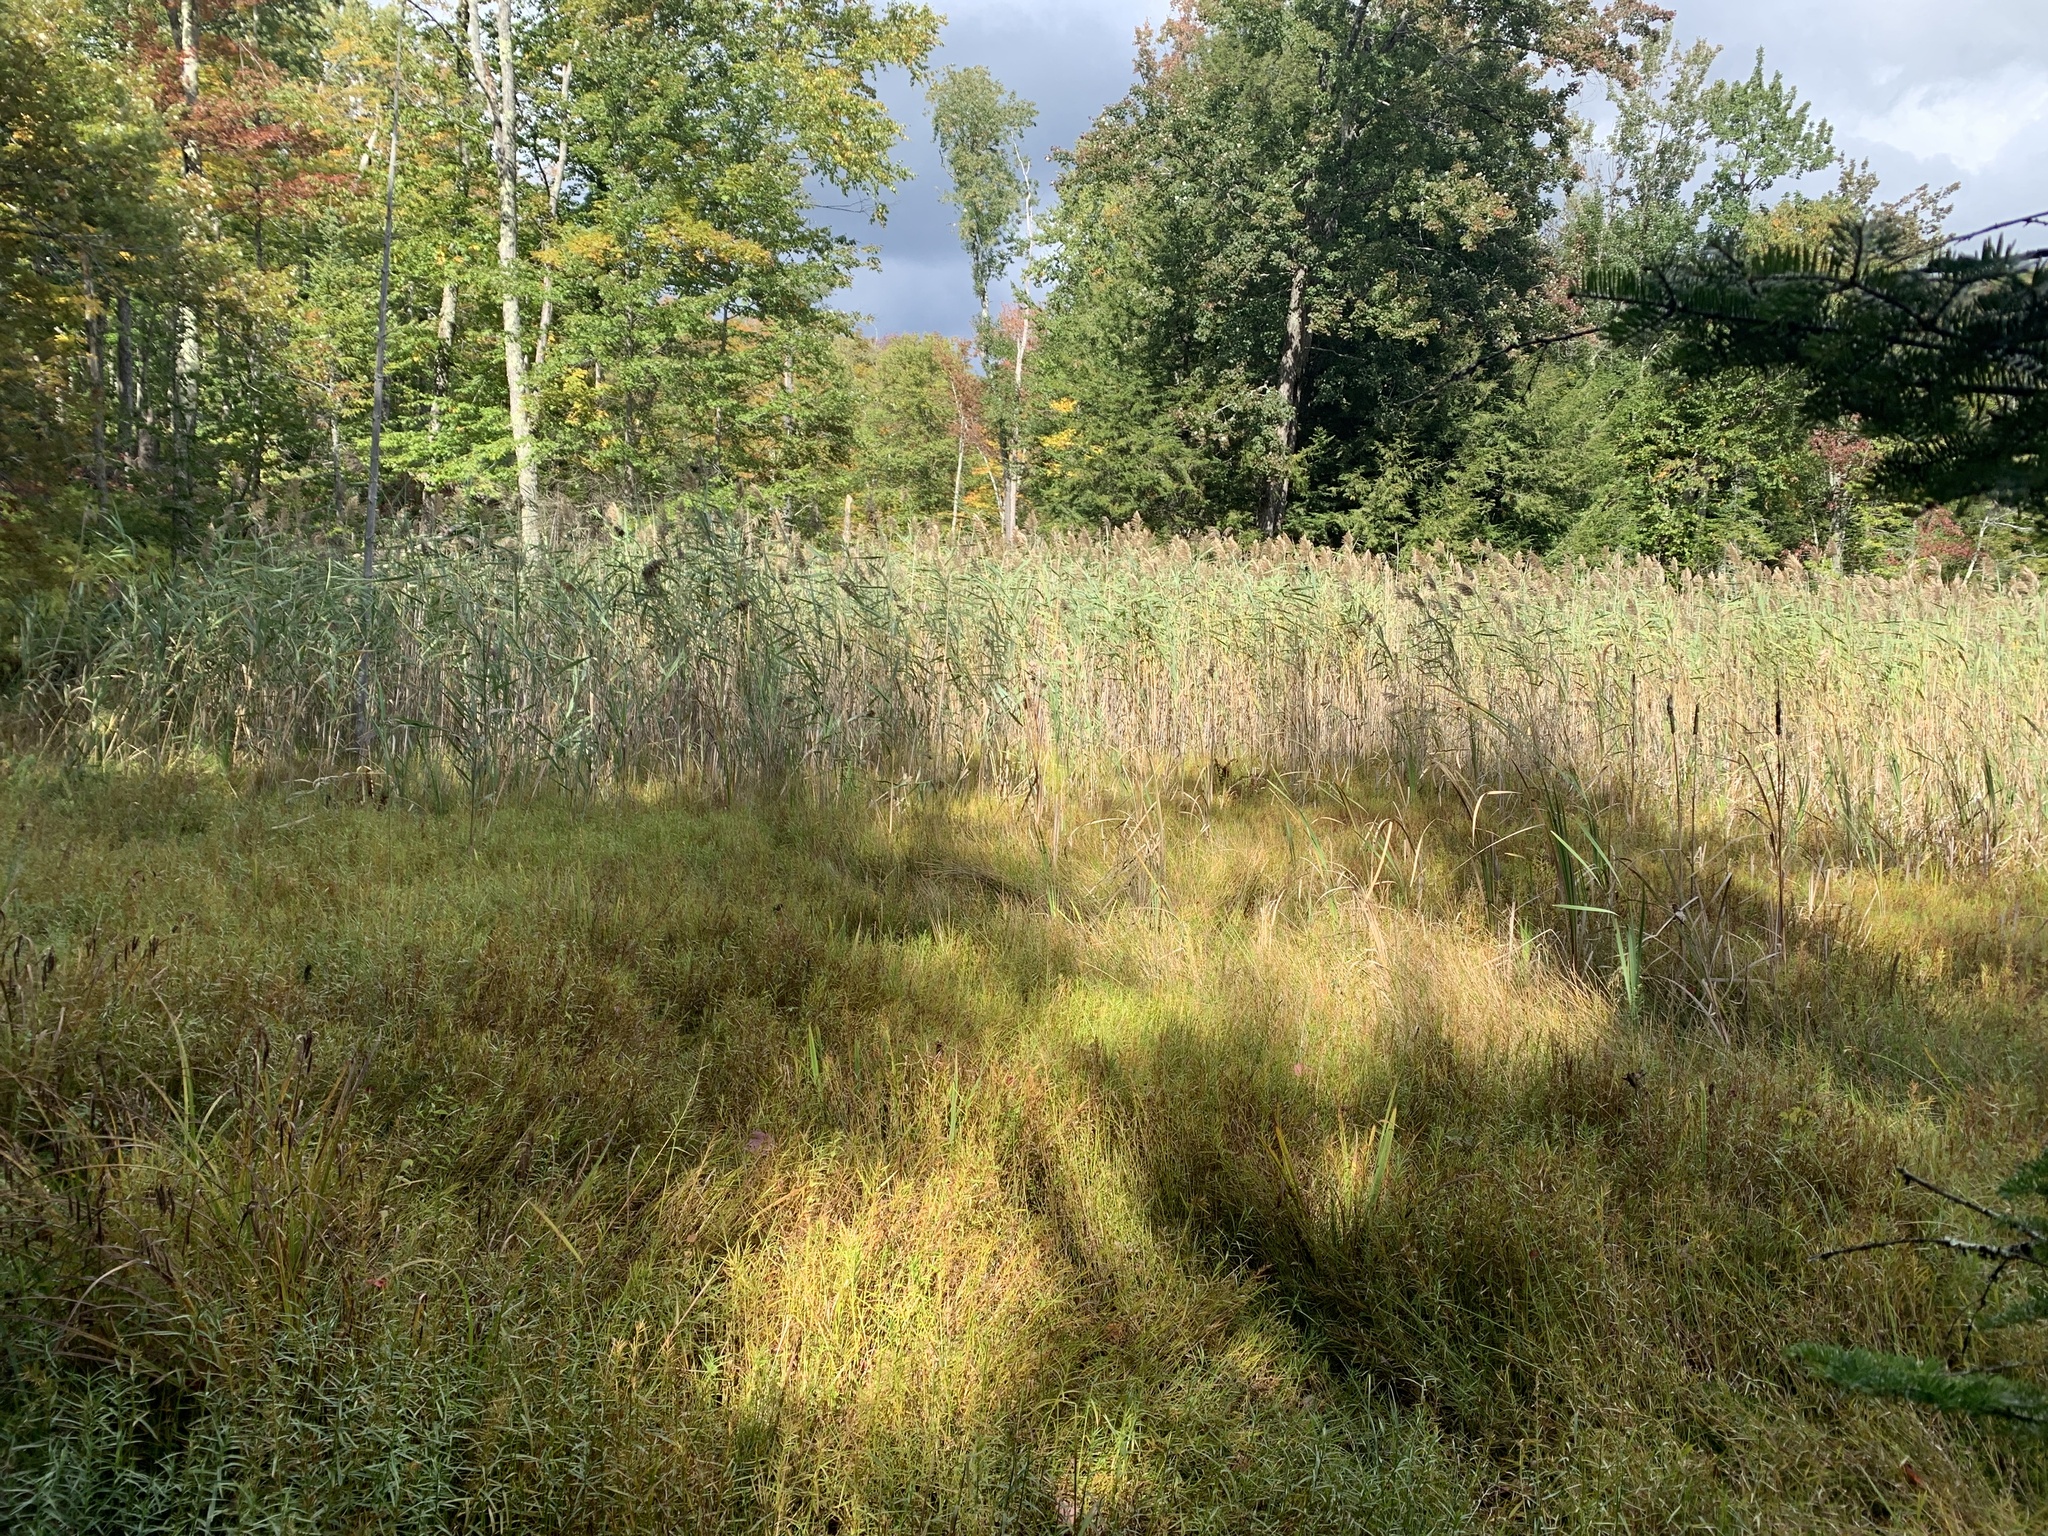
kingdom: Plantae
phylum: Tracheophyta
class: Liliopsida
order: Poales
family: Poaceae
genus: Phragmites
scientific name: Phragmites australis
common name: Common reed
